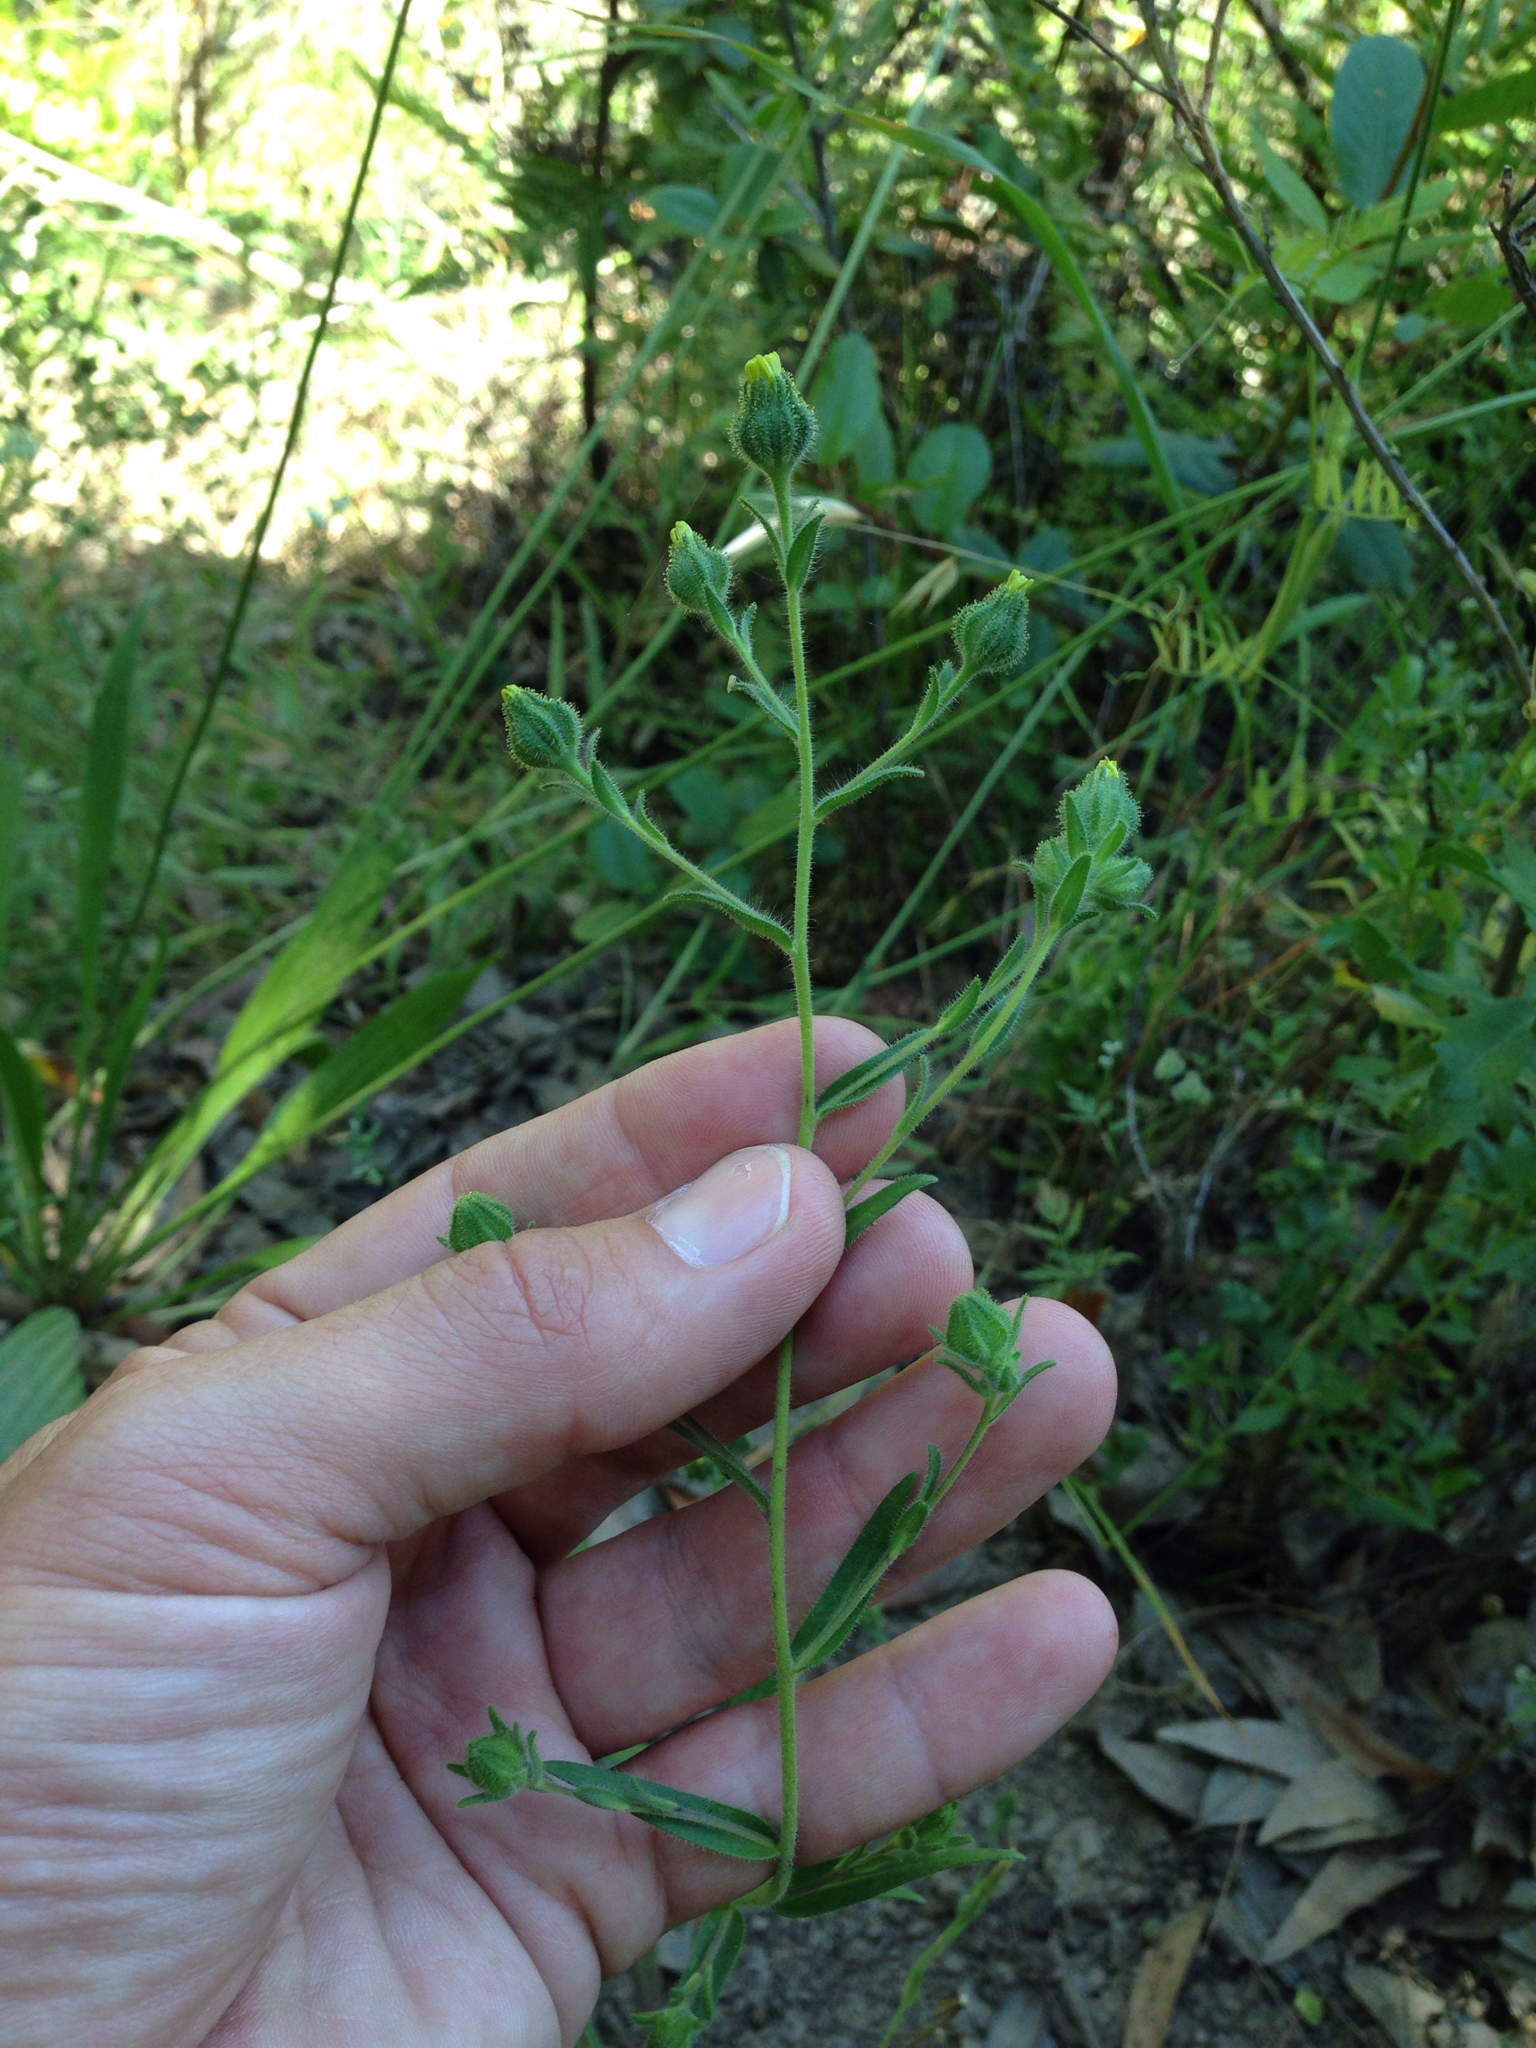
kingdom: Plantae
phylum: Tracheophyta
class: Magnoliopsida
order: Asterales
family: Asteraceae
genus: Madia
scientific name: Madia gracilis
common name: Grassy tarweed
